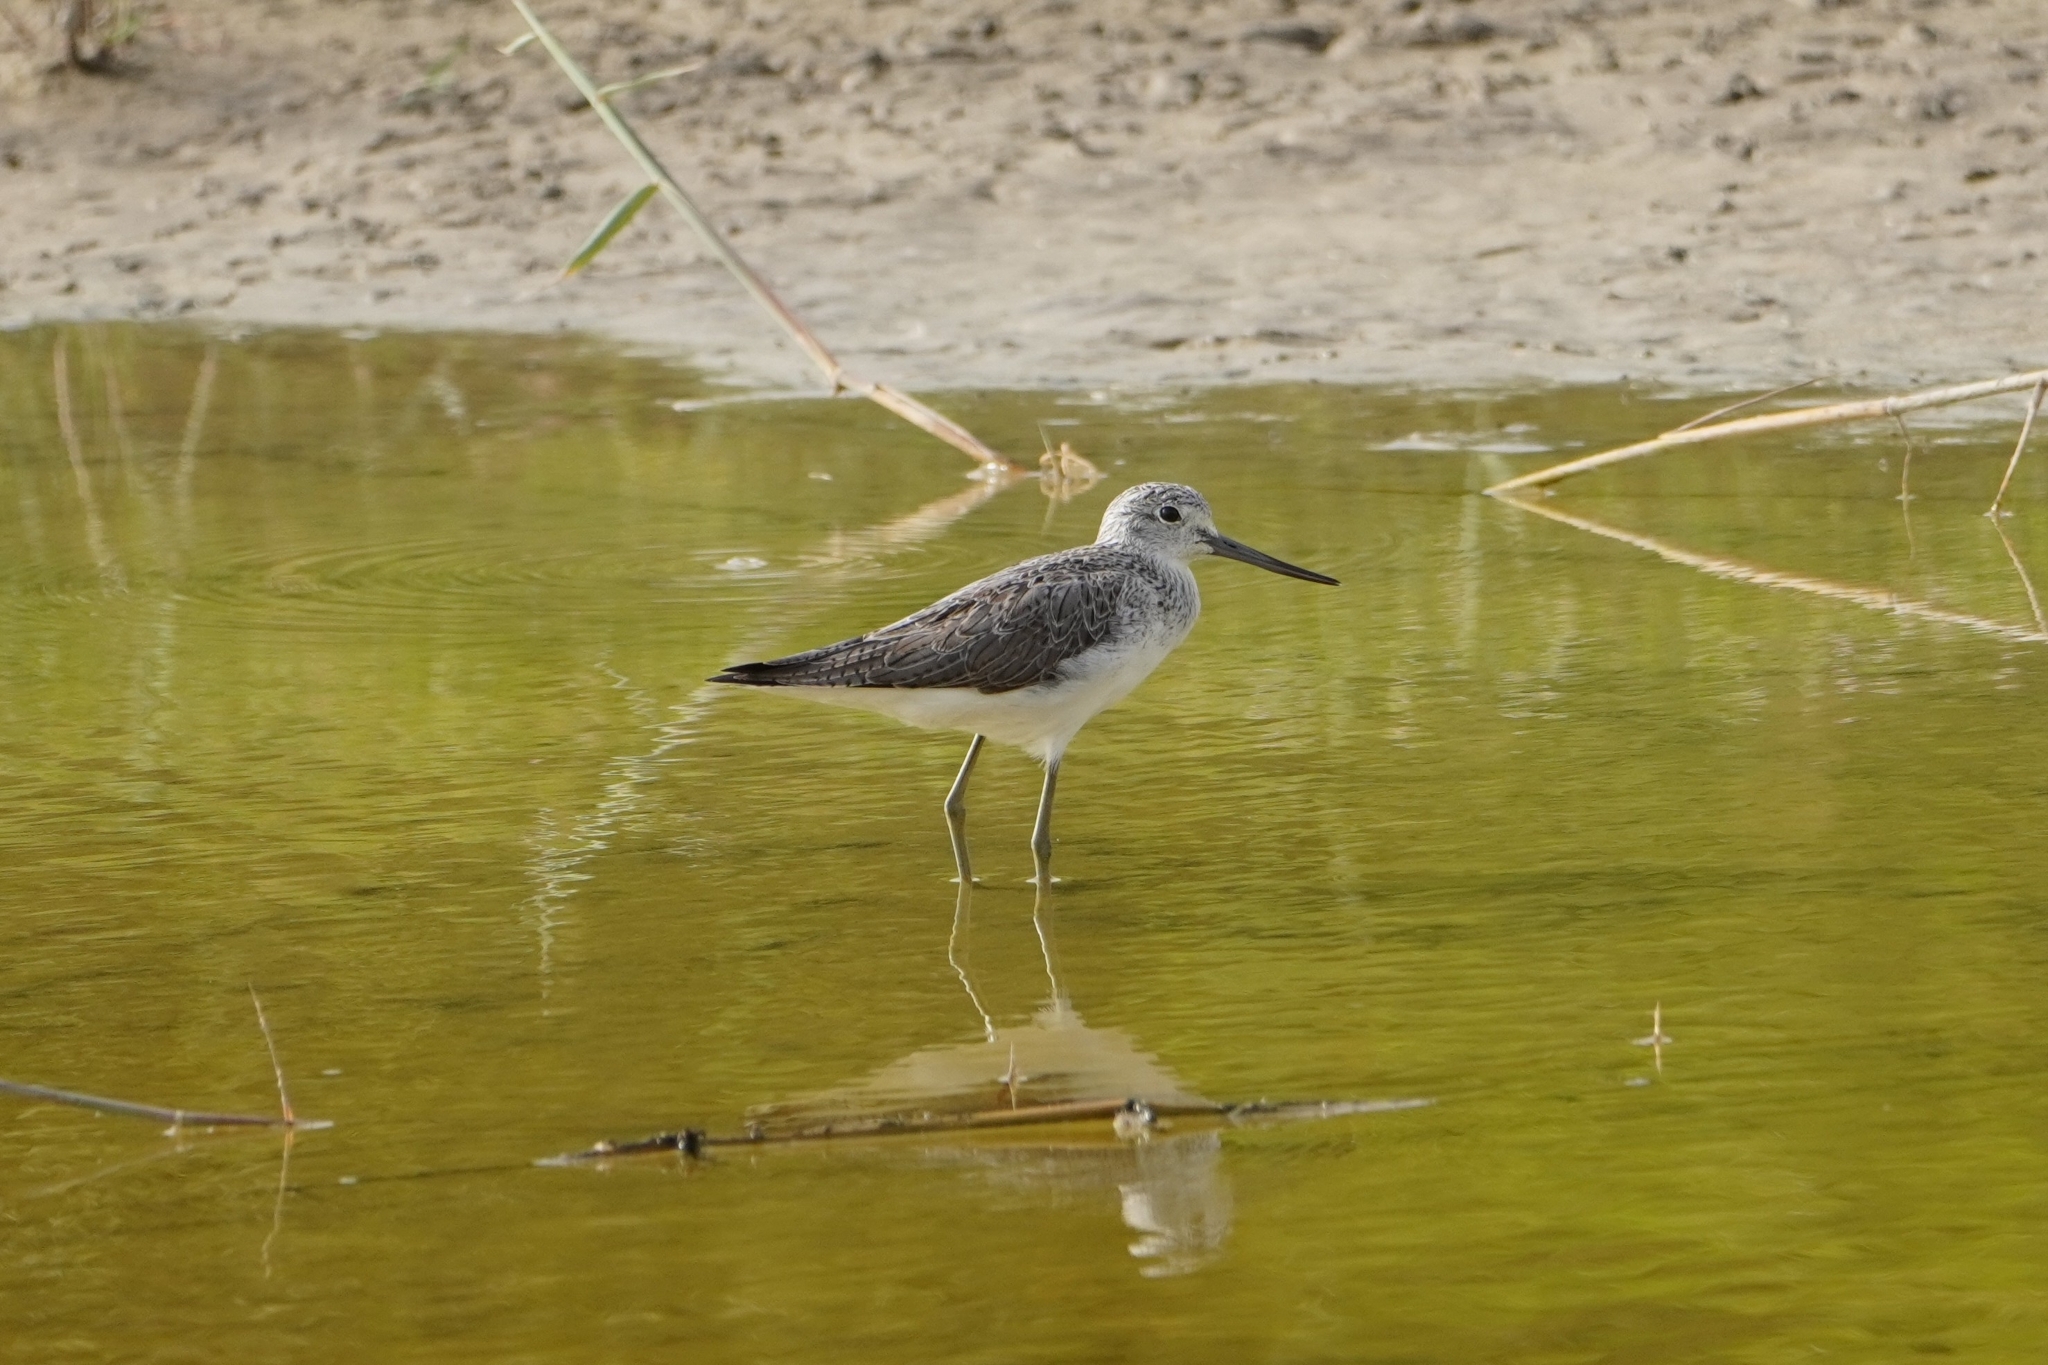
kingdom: Animalia
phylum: Chordata
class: Aves
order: Charadriiformes
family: Scolopacidae
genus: Tringa
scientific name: Tringa nebularia
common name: Common greenshank
